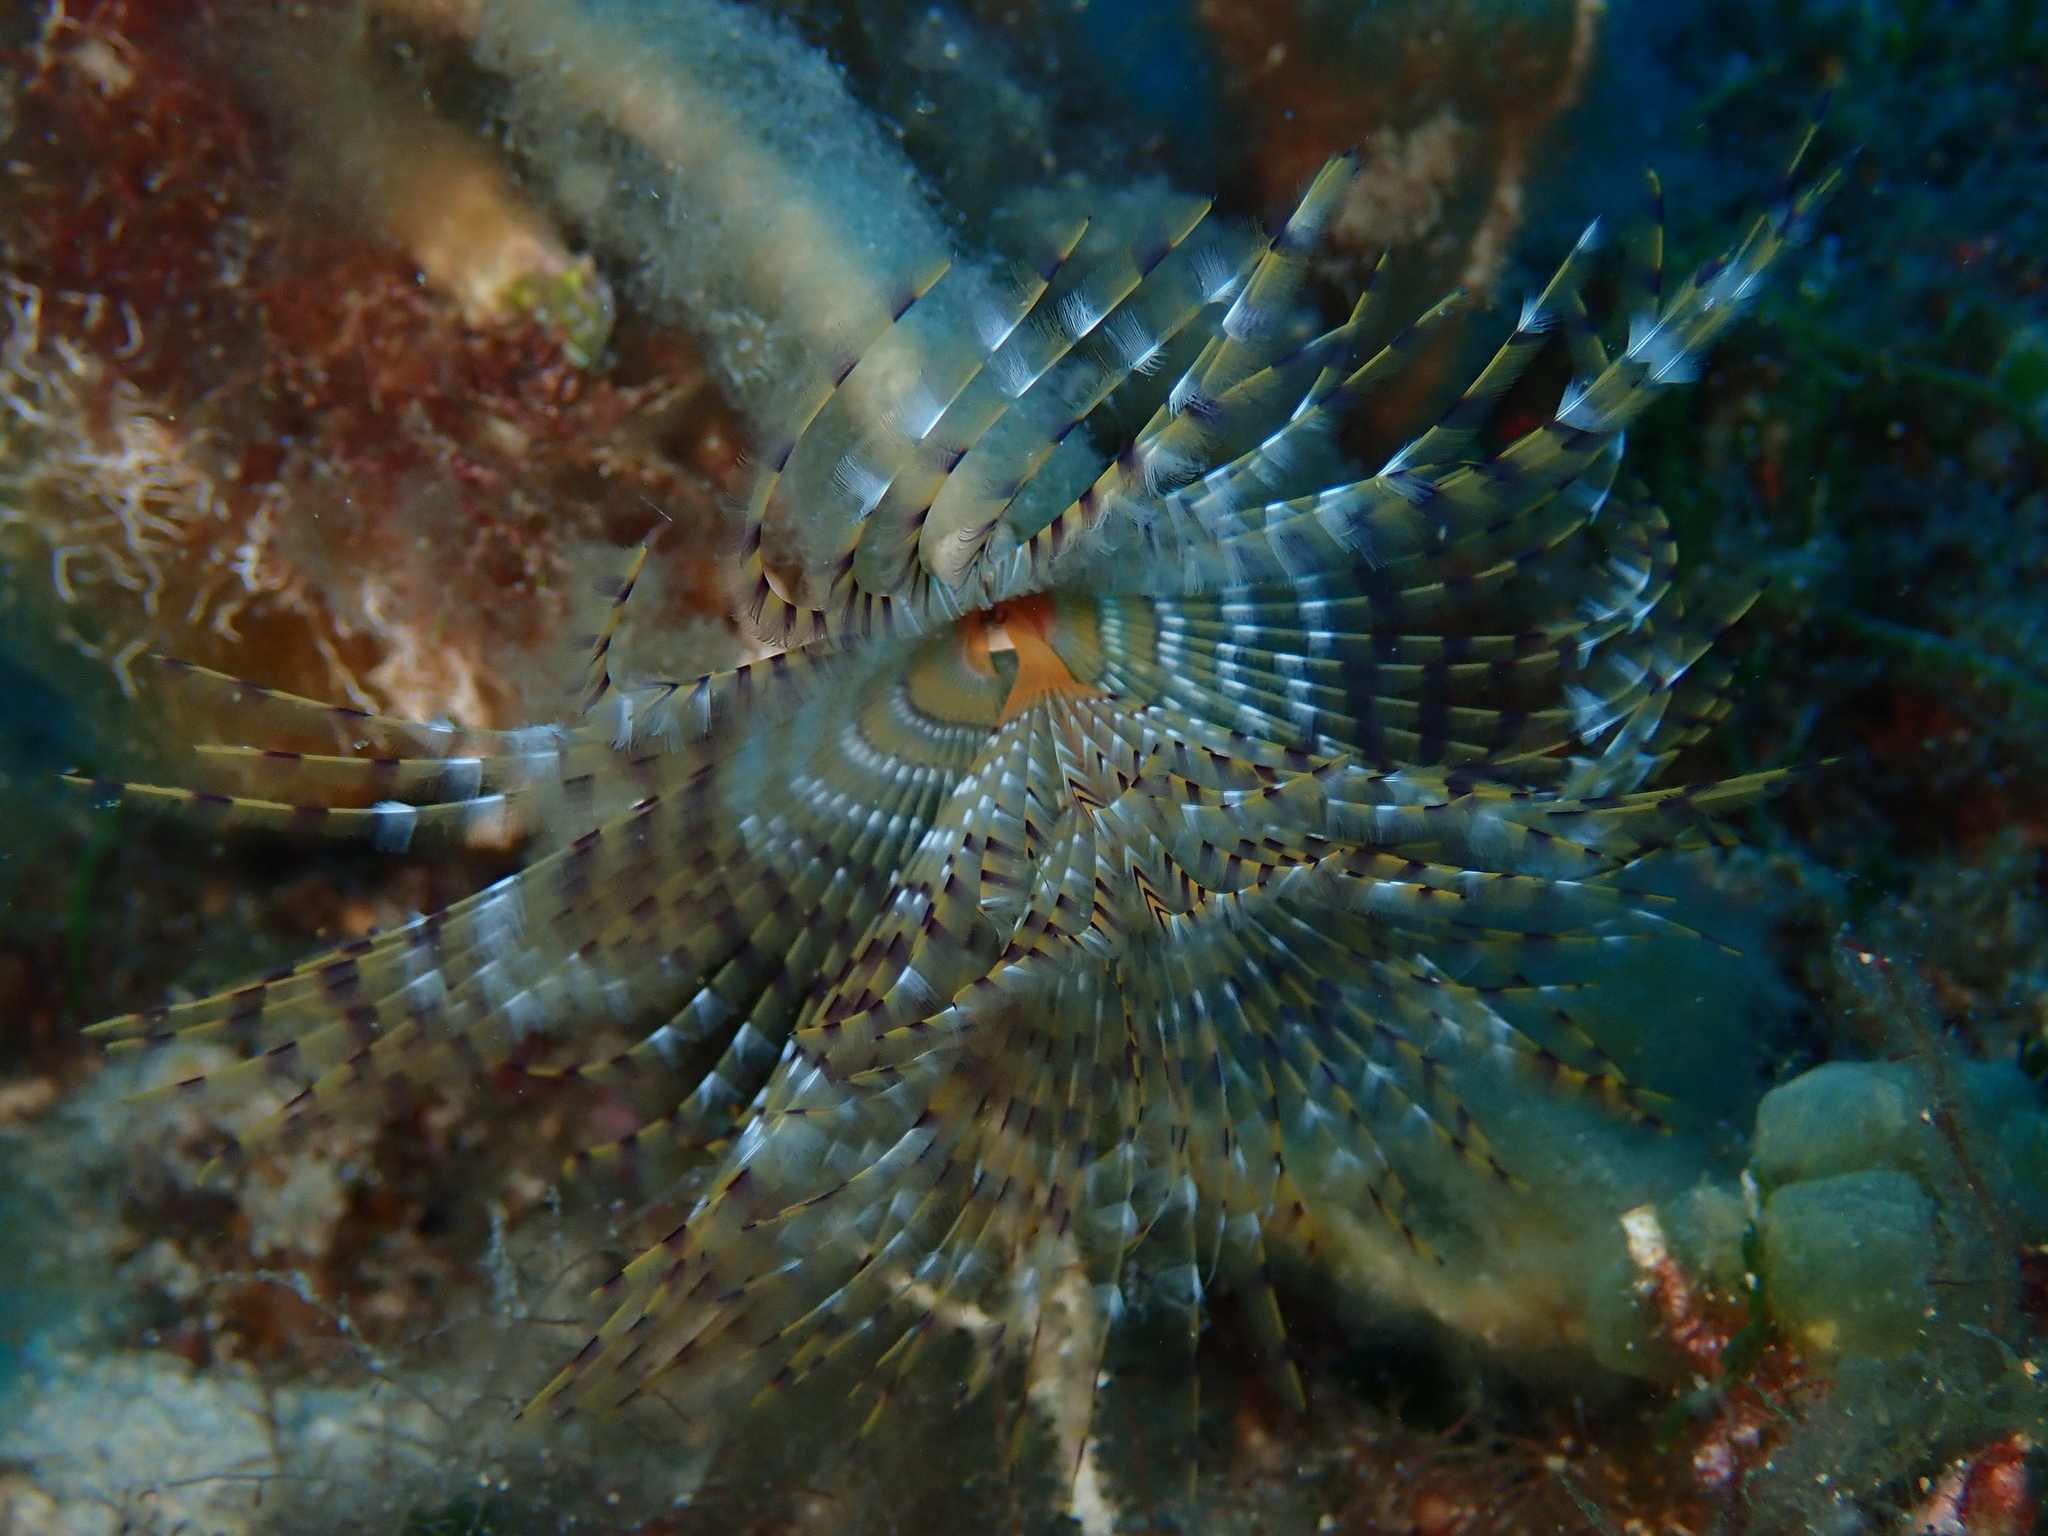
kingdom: Animalia
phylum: Annelida
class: Polychaeta
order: Sabellida
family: Sabellidae
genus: Sabella
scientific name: Sabella spallanzanii
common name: Feather duster worm
